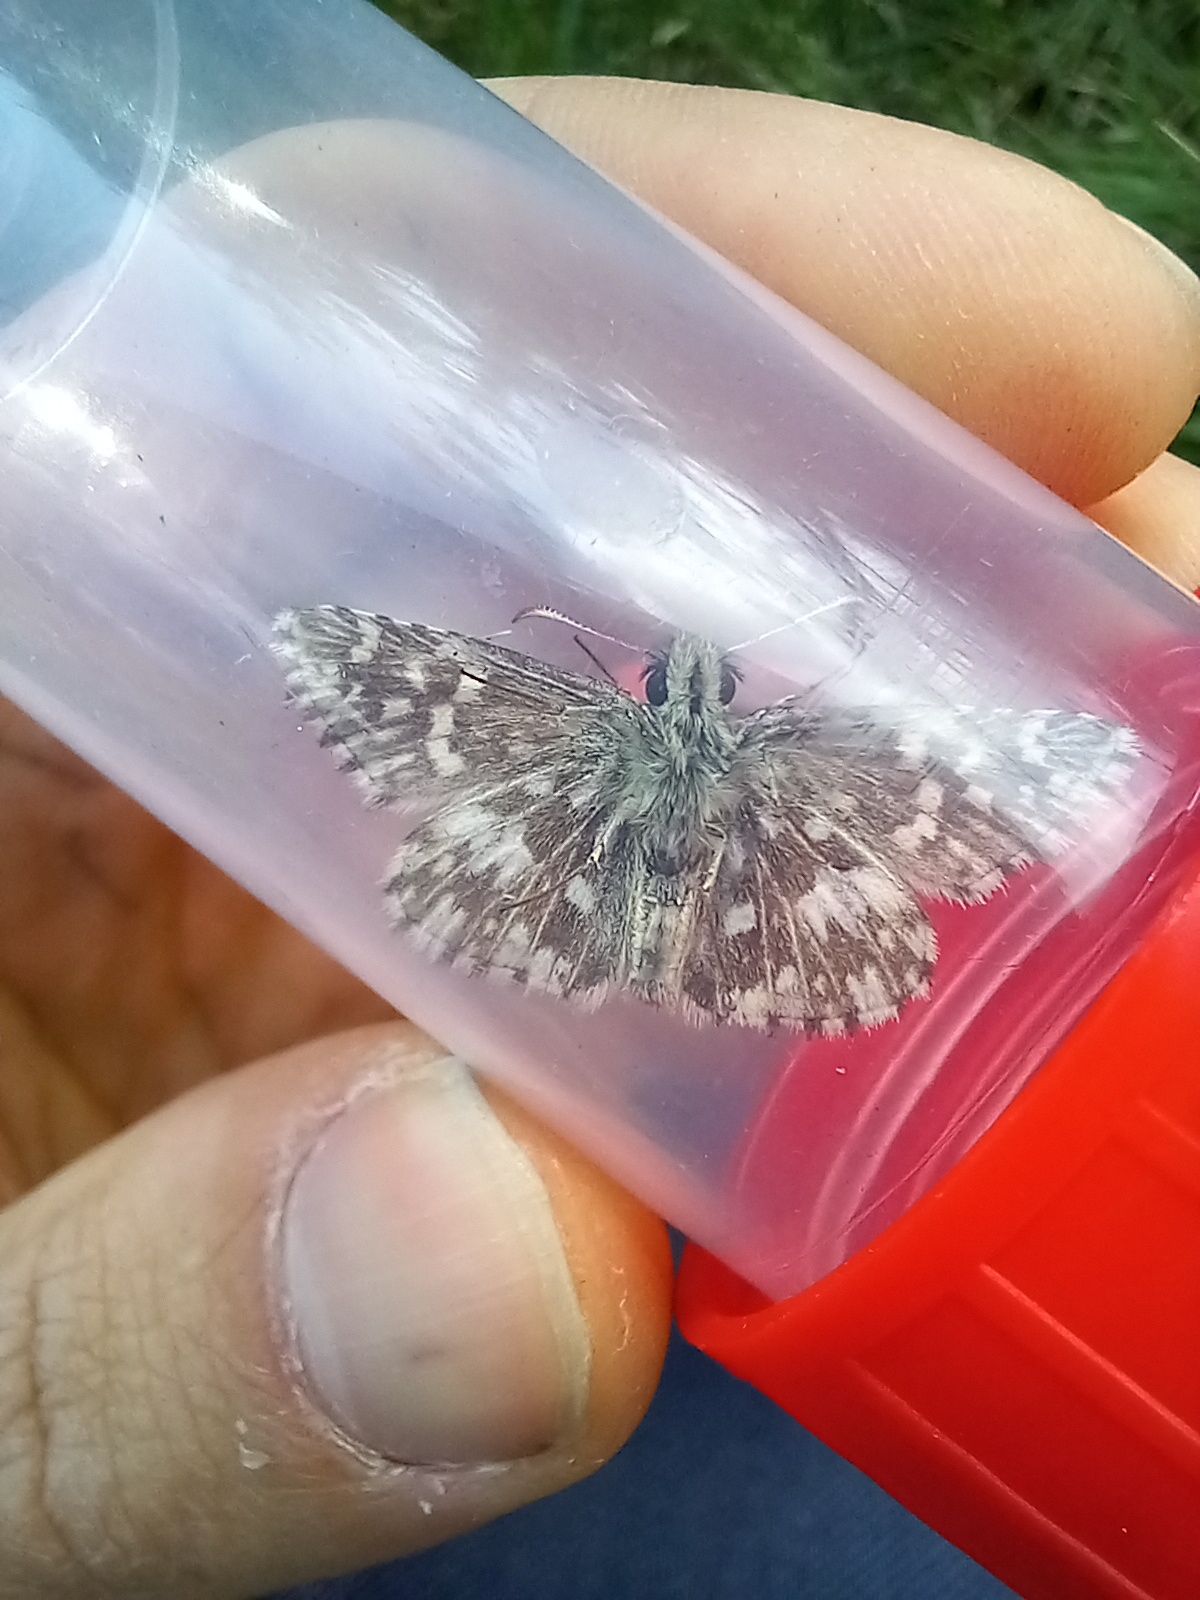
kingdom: Animalia
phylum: Arthropoda
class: Insecta
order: Lepidoptera
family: Hesperiidae
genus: Pyrgus
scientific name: Pyrgus malvae
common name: Grizzled skipper
